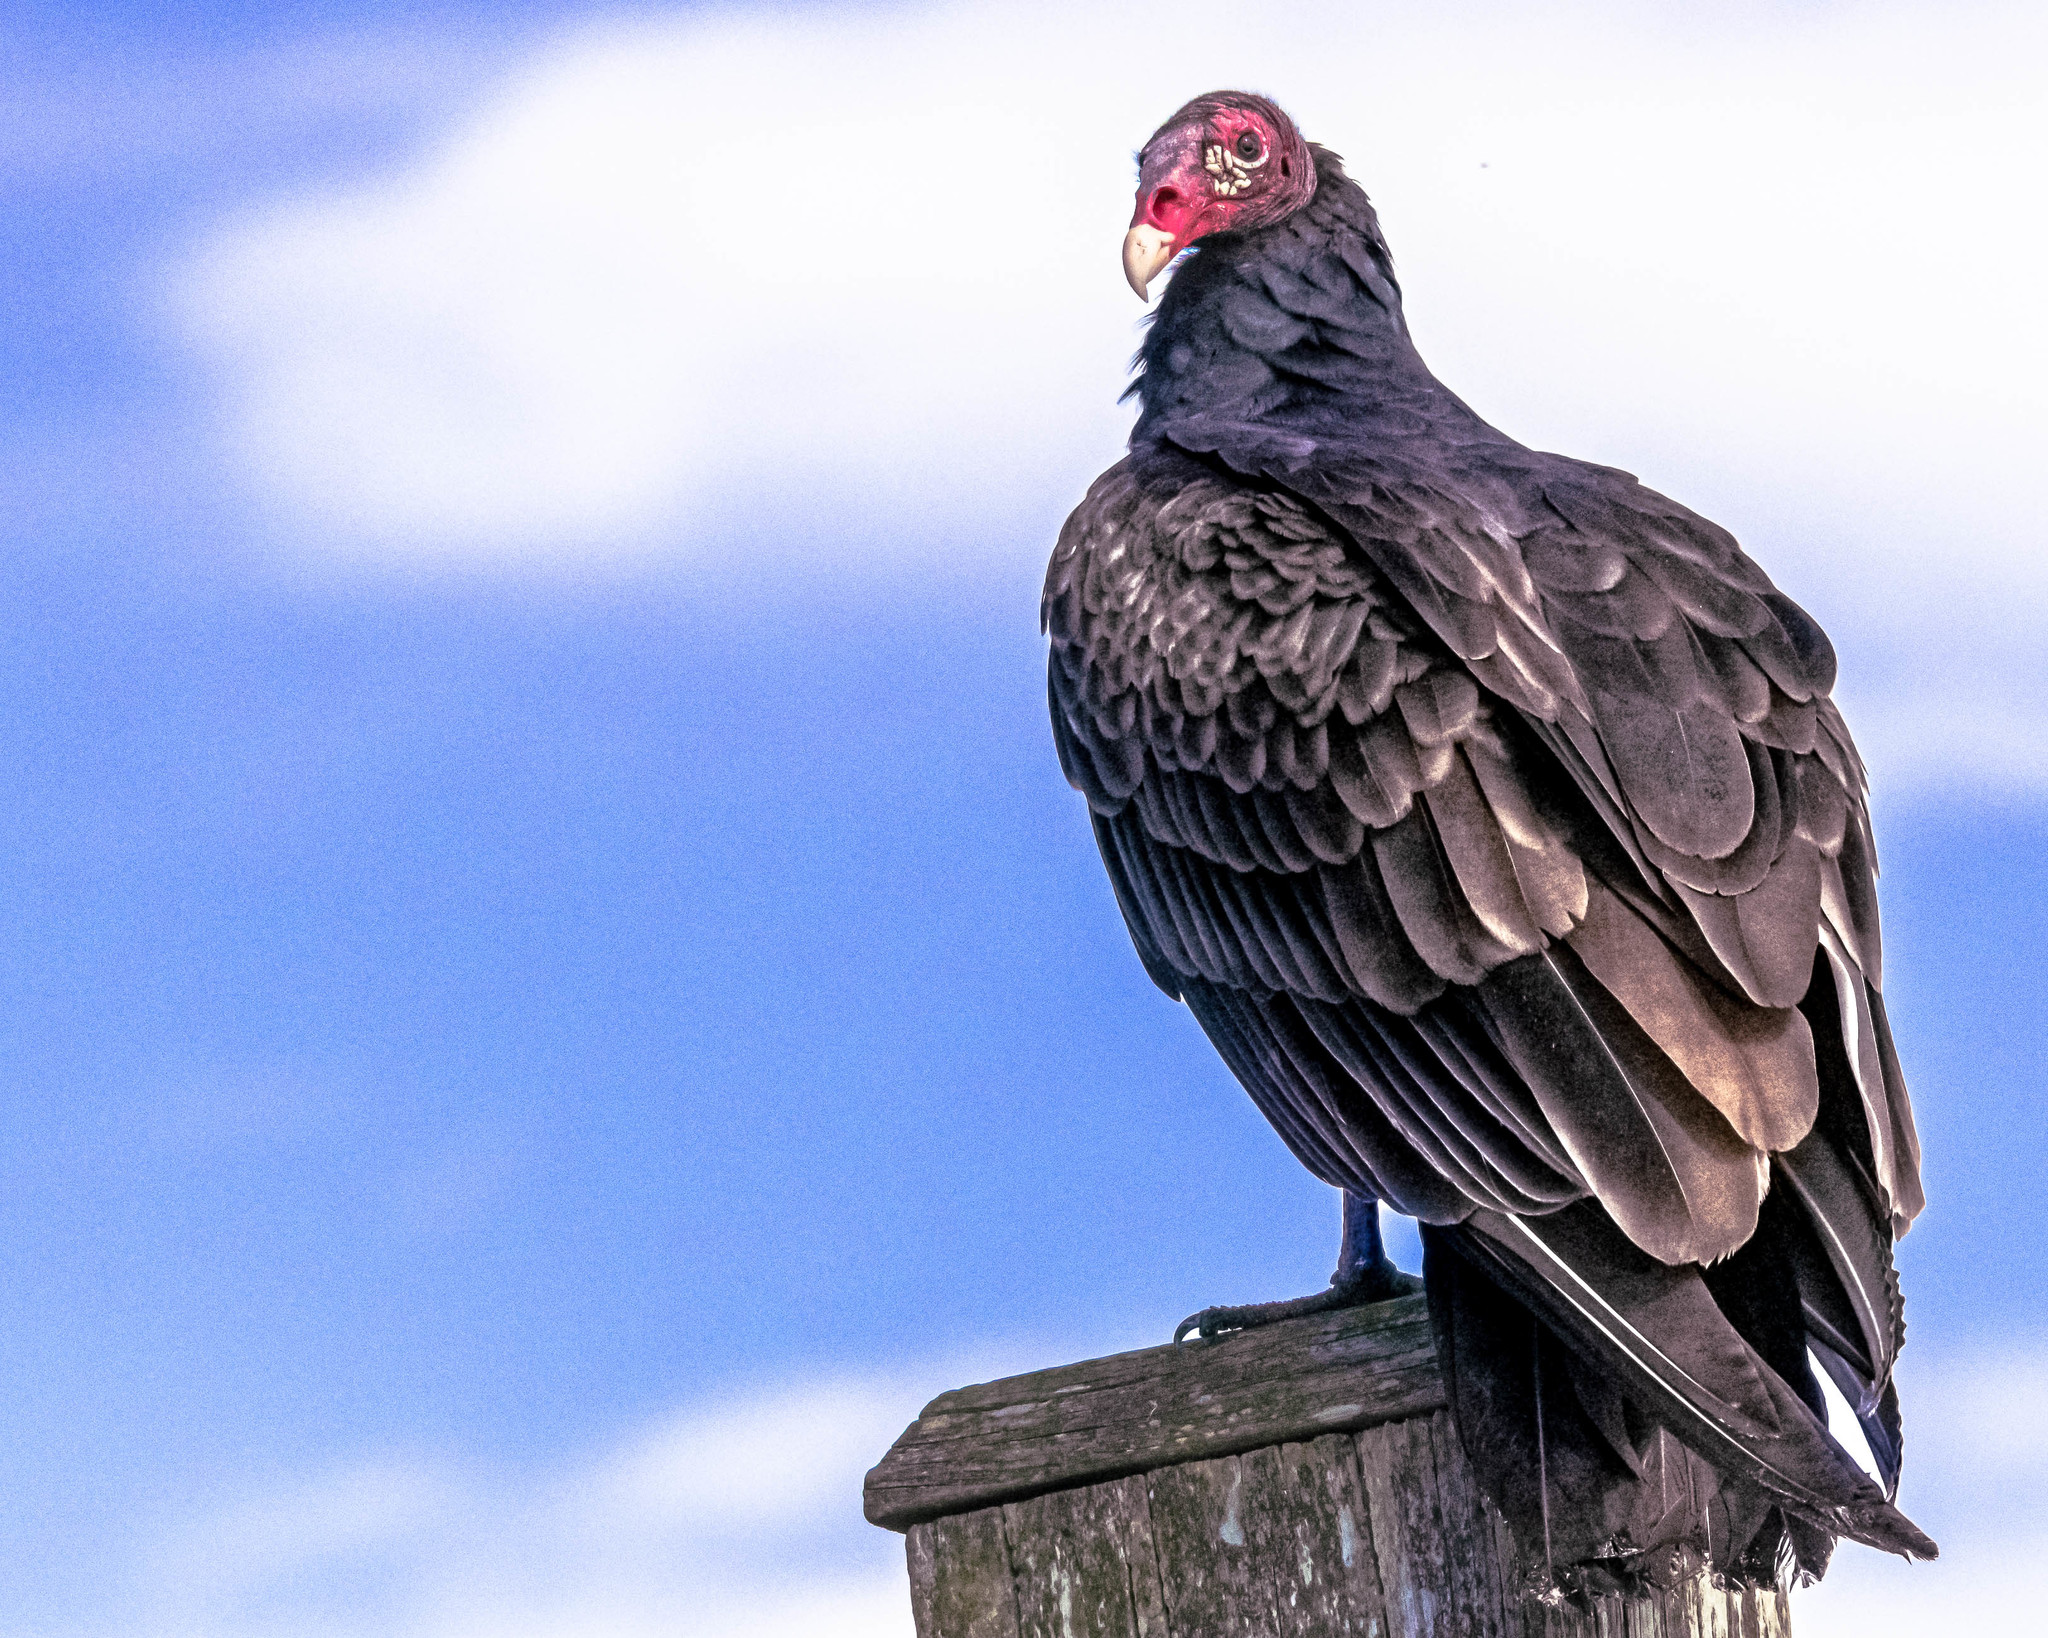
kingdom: Animalia
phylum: Chordata
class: Aves
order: Accipitriformes
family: Cathartidae
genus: Cathartes
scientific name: Cathartes aura
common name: Turkey vulture
